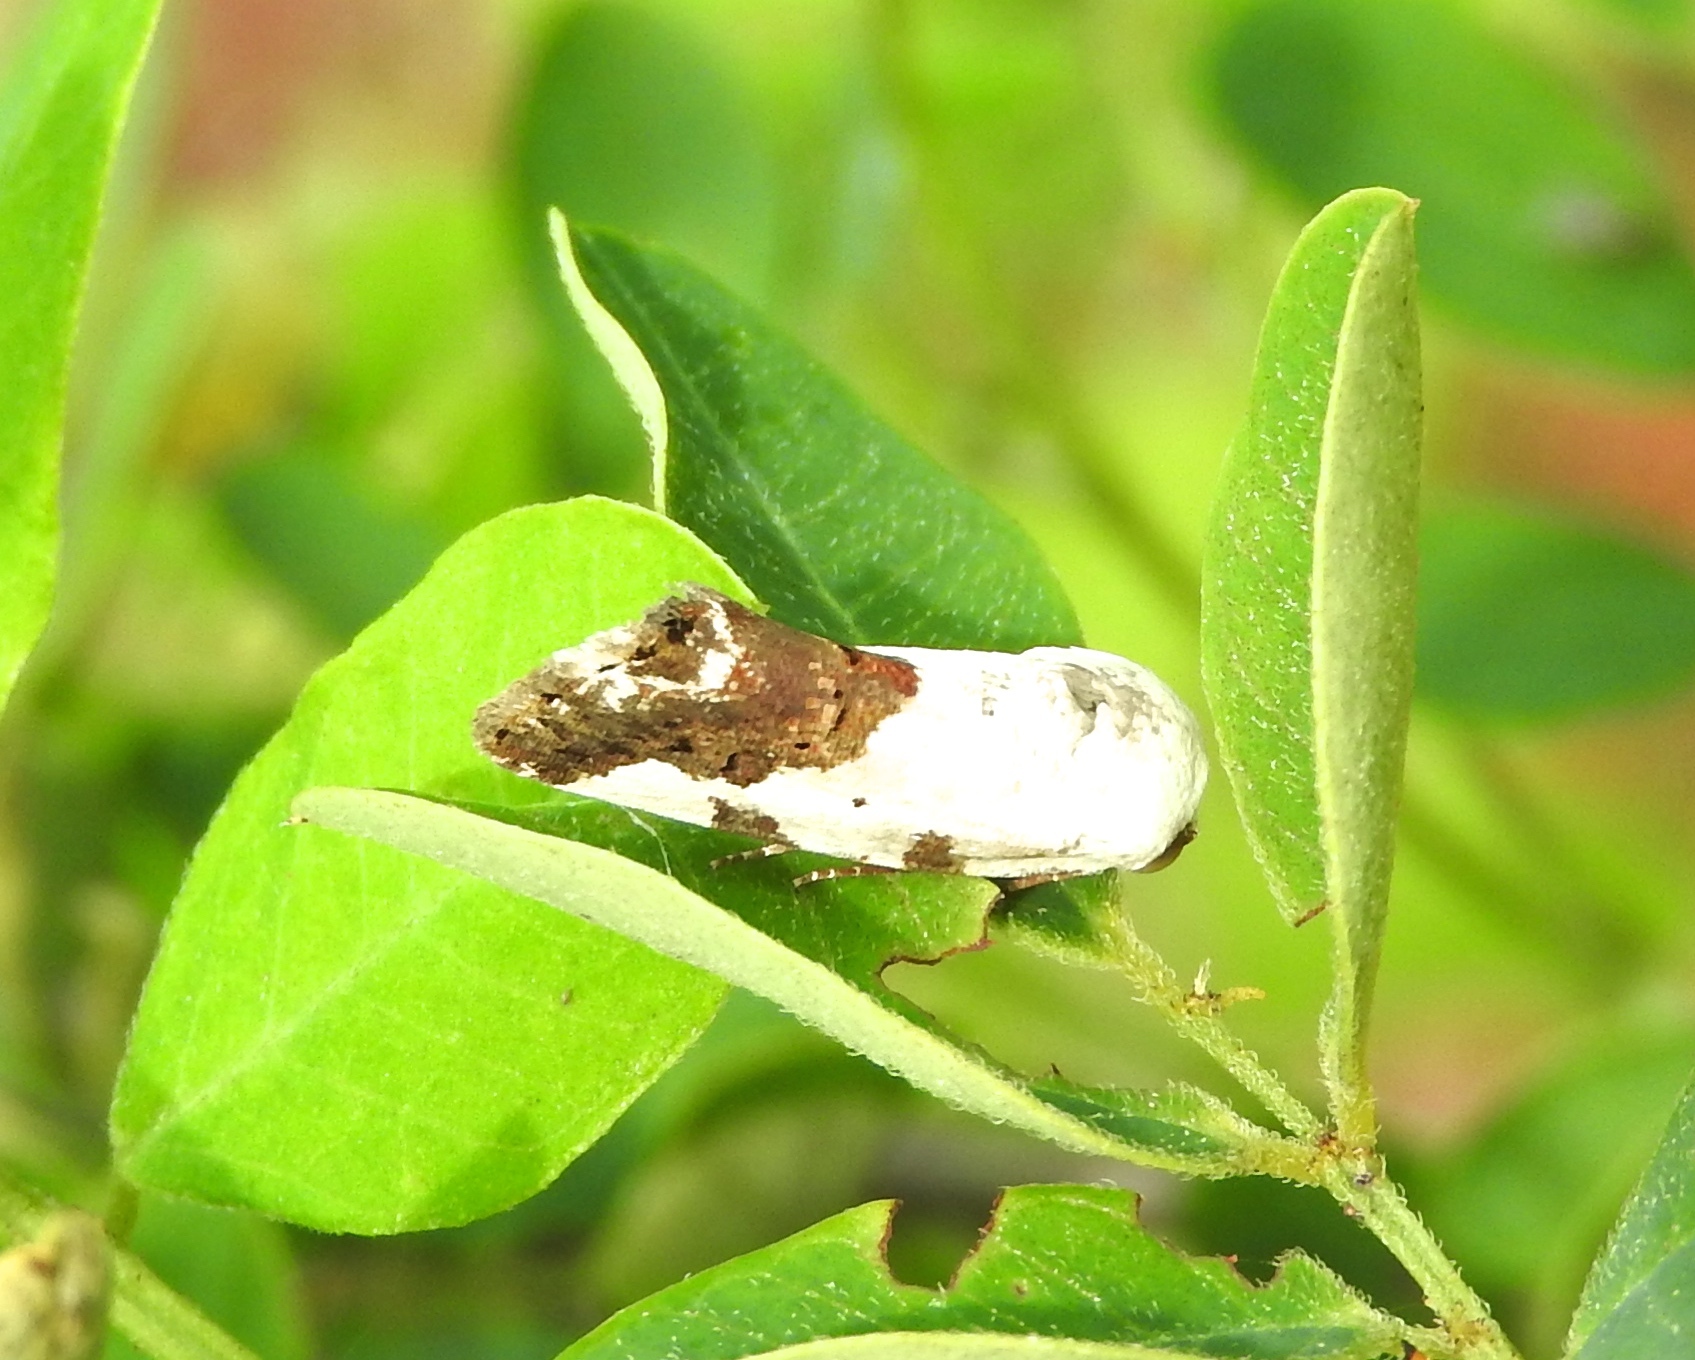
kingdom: Animalia
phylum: Arthropoda
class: Insecta
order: Lepidoptera
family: Noctuidae
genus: Acontia
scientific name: Acontia
